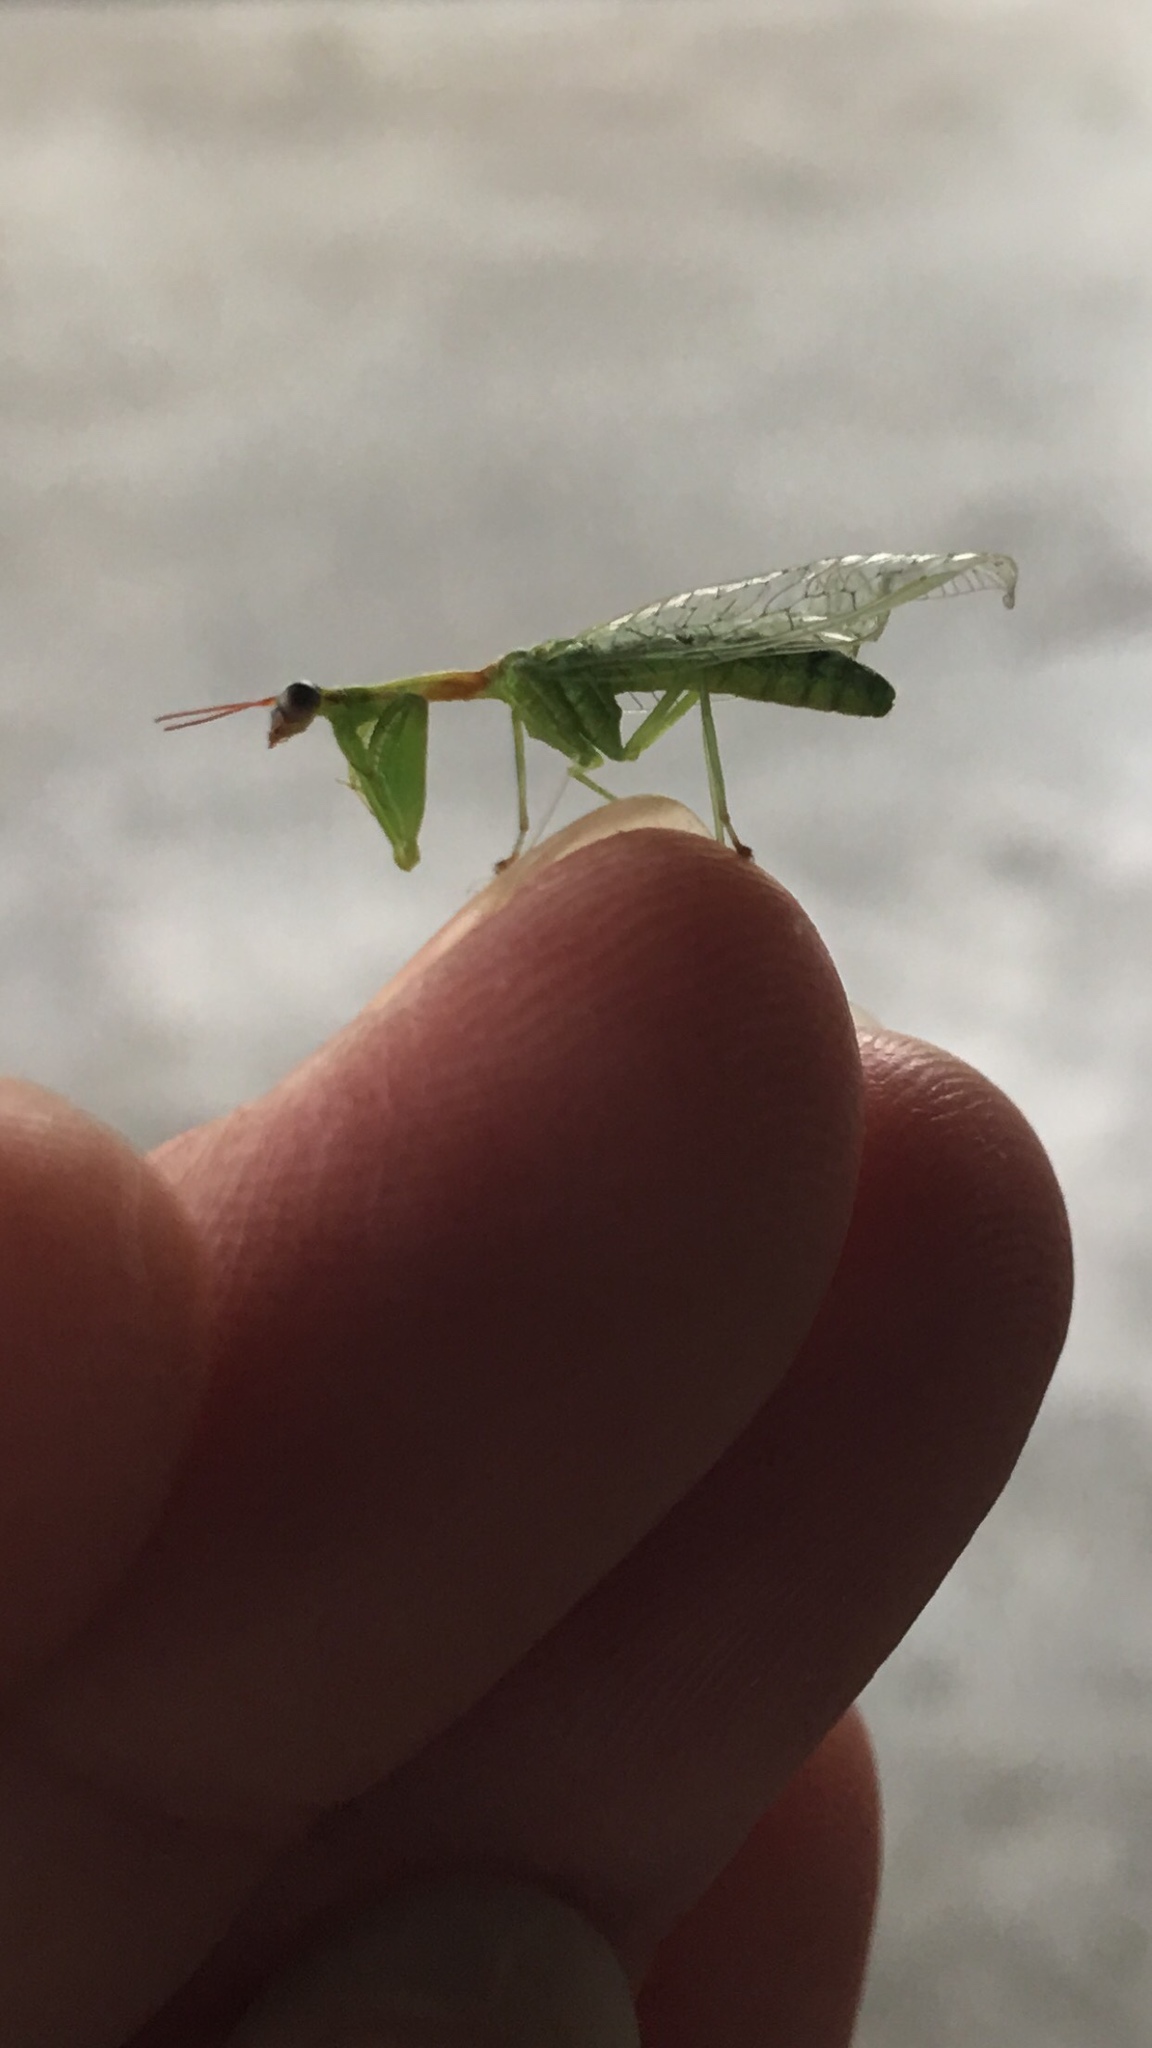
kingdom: Animalia
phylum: Arthropoda
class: Insecta
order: Neuroptera
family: Mantispidae
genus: Zeugomantispa
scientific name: Zeugomantispa minuta
